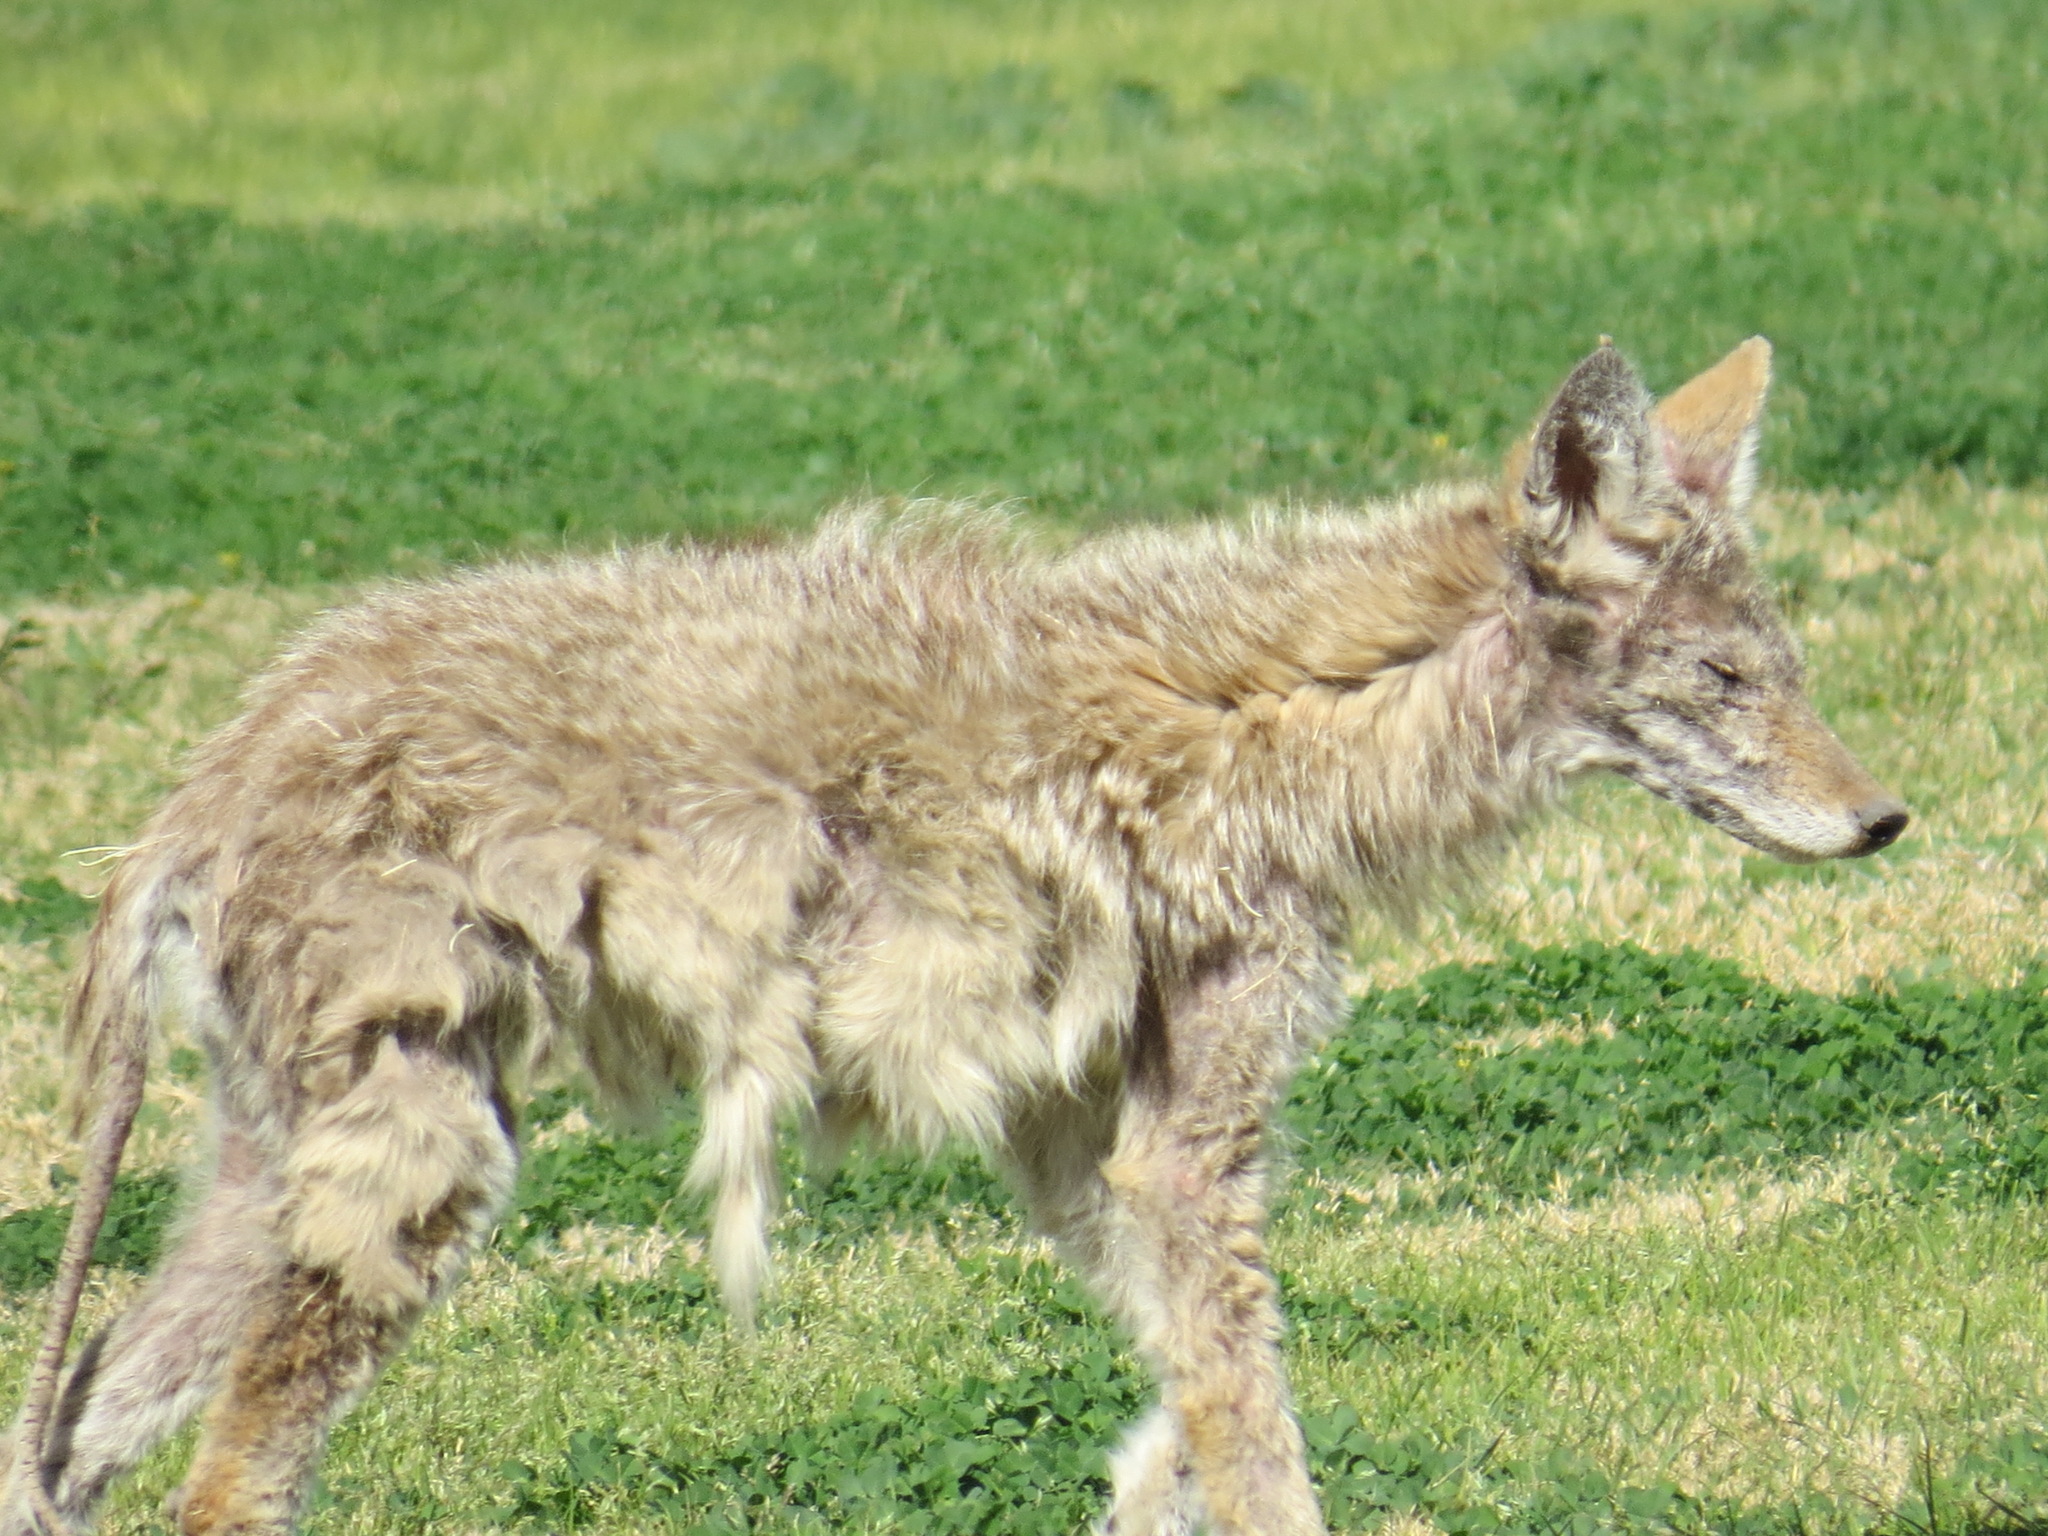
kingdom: Animalia
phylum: Chordata
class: Mammalia
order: Carnivora
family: Canidae
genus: Canis
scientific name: Canis latrans
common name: Coyote
